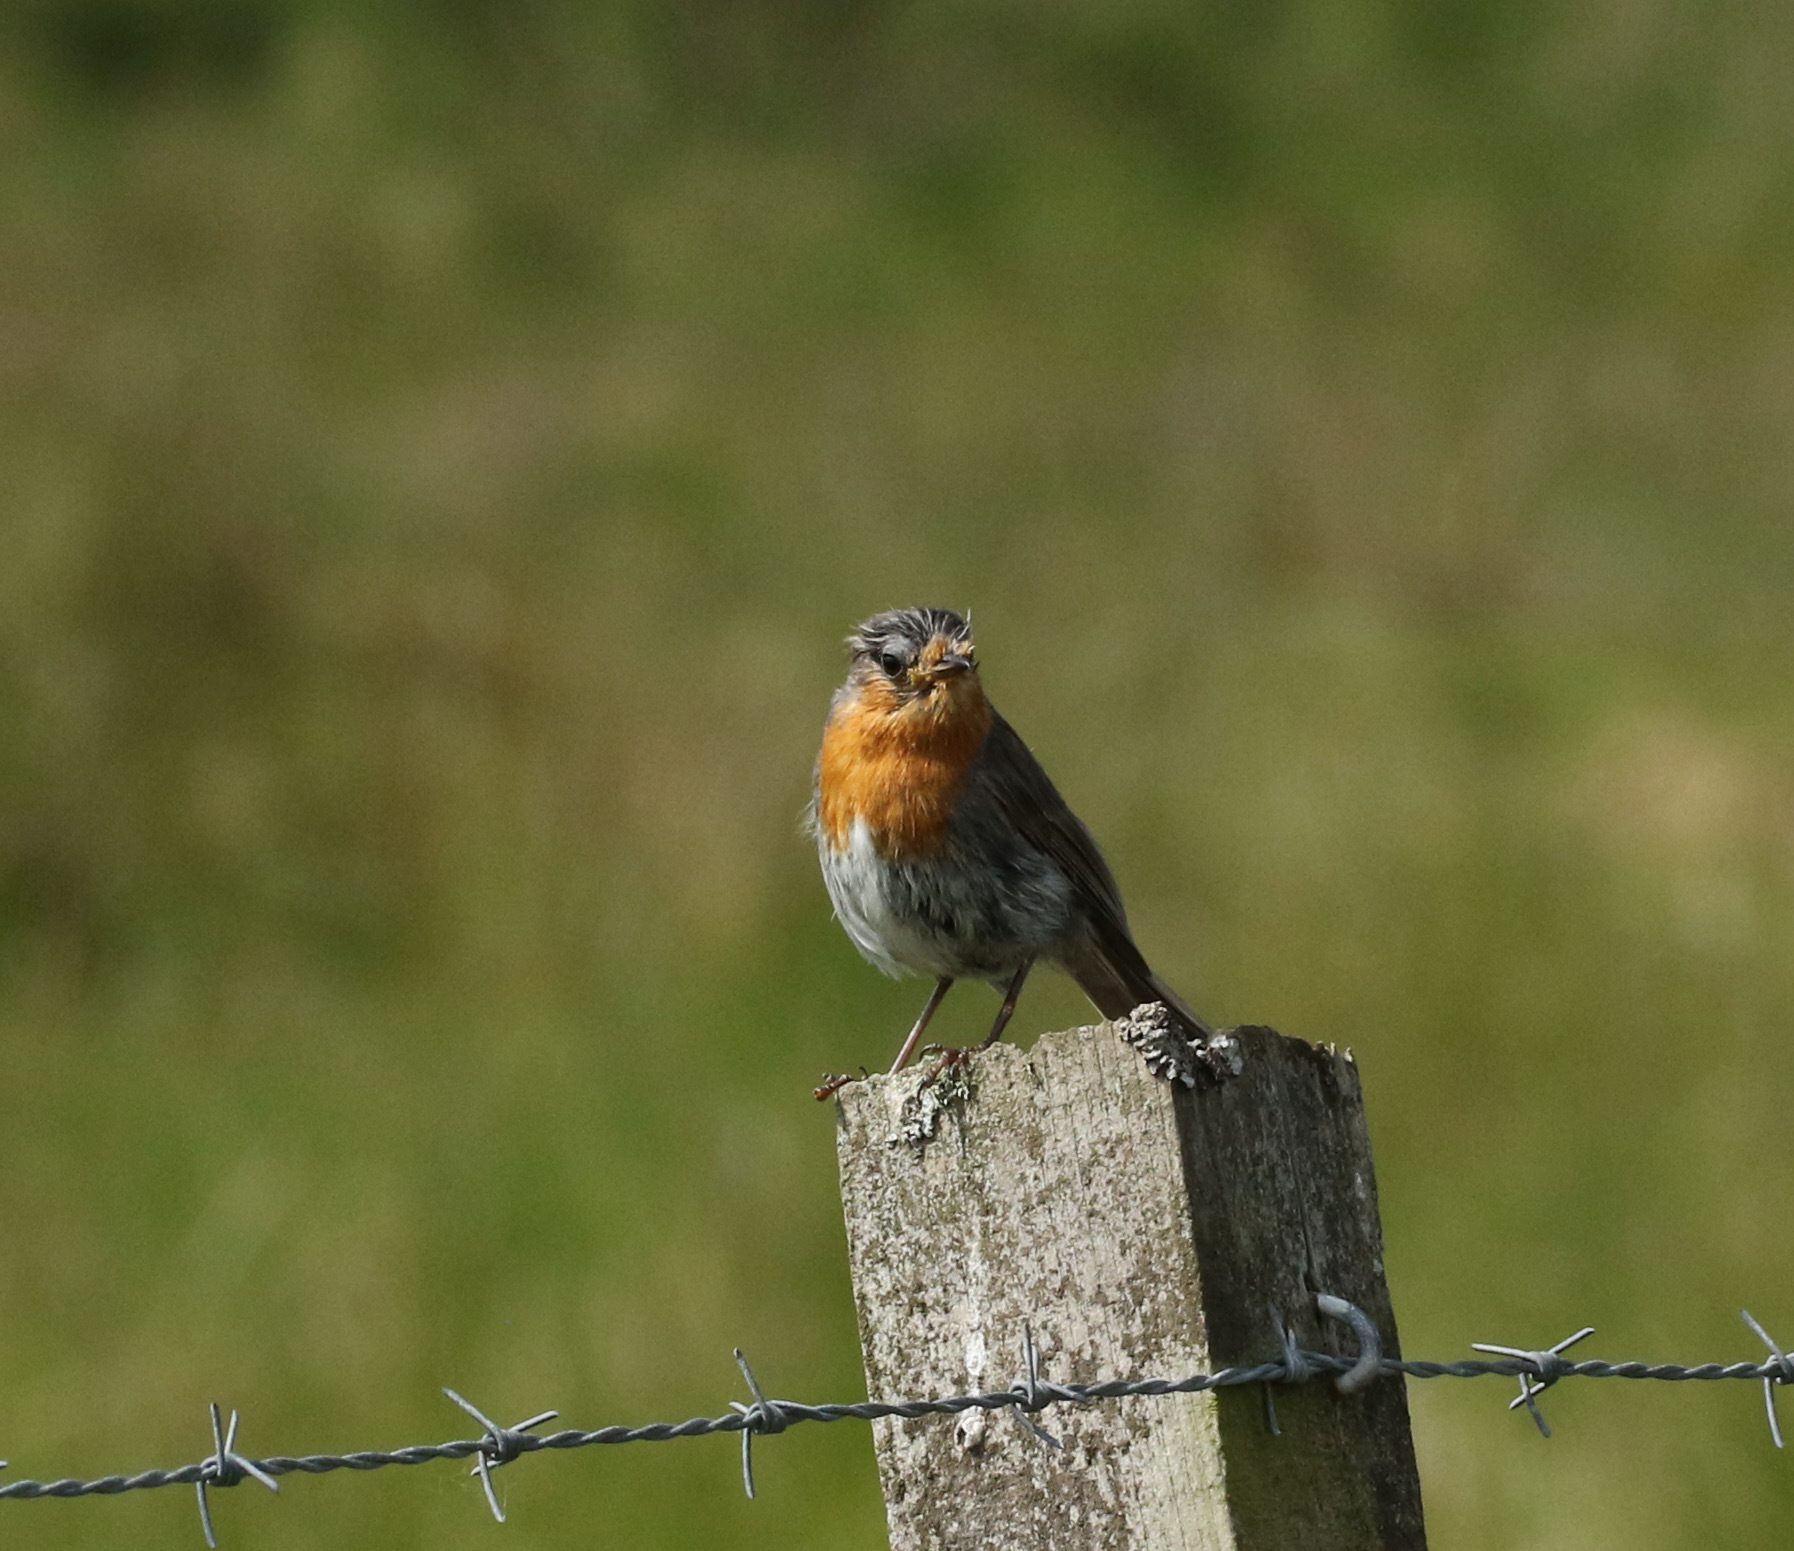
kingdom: Animalia
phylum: Chordata
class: Aves
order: Passeriformes
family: Muscicapidae
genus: Erithacus
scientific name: Erithacus rubecula
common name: European robin
